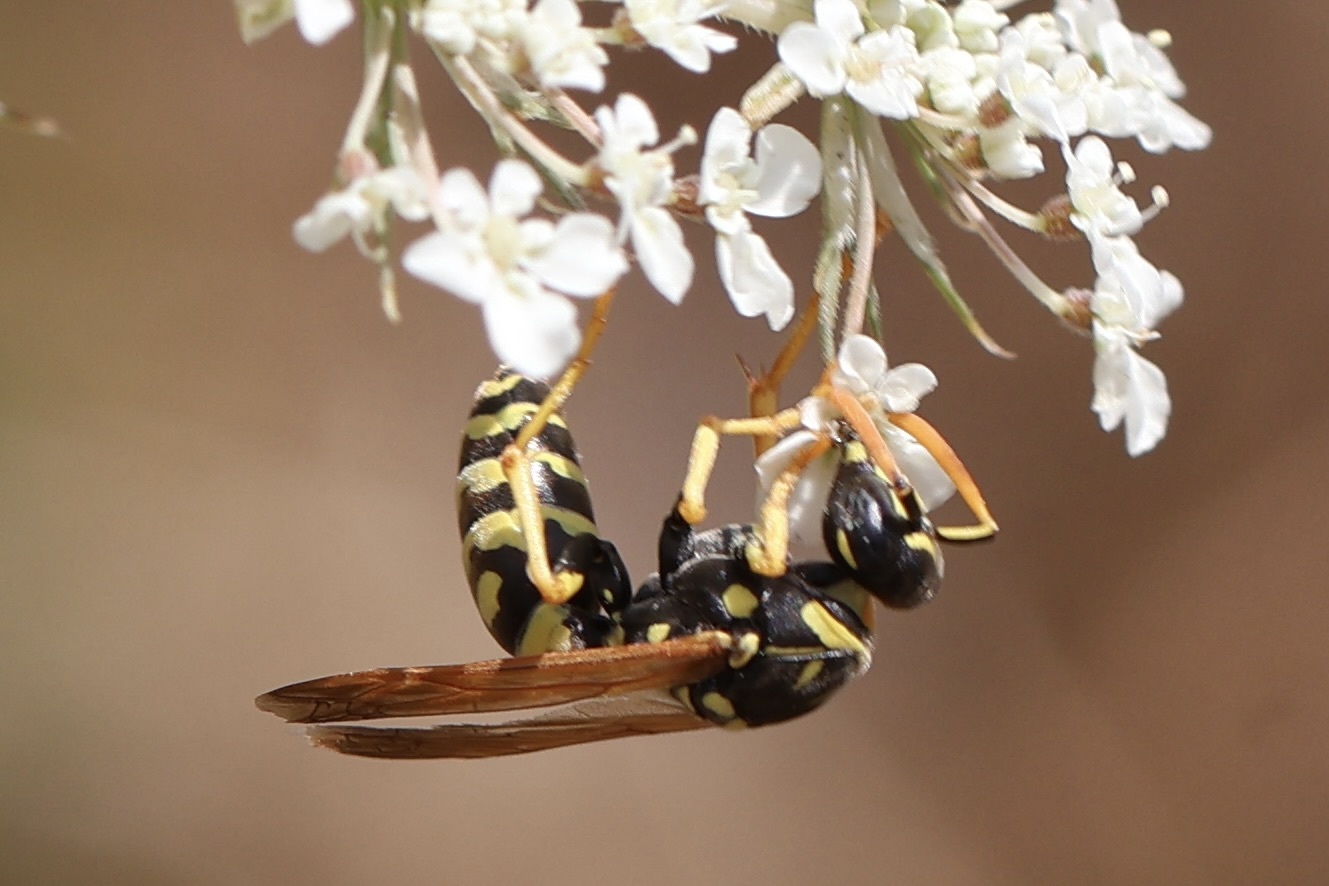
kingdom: Animalia
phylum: Arthropoda
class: Insecta
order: Hymenoptera
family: Eumenidae
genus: Polistes
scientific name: Polistes dominula
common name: Paper wasp
